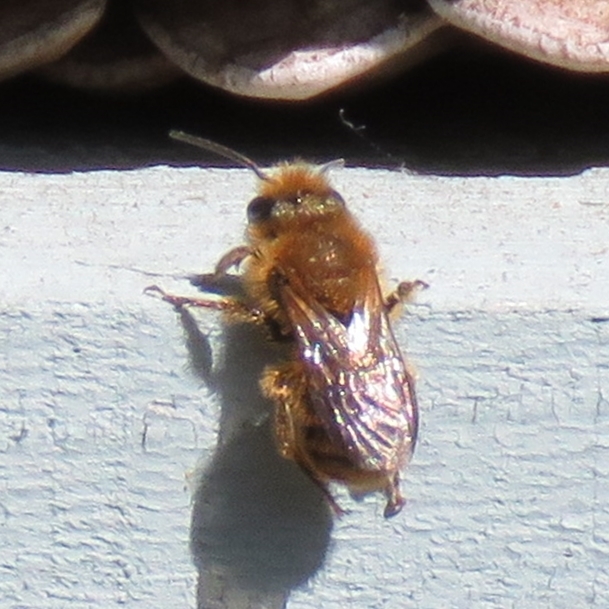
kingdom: Animalia
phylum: Arthropoda
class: Insecta
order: Hymenoptera
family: Megachilidae
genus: Osmia
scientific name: Osmia leaiana
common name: Orange-vented mason bee
